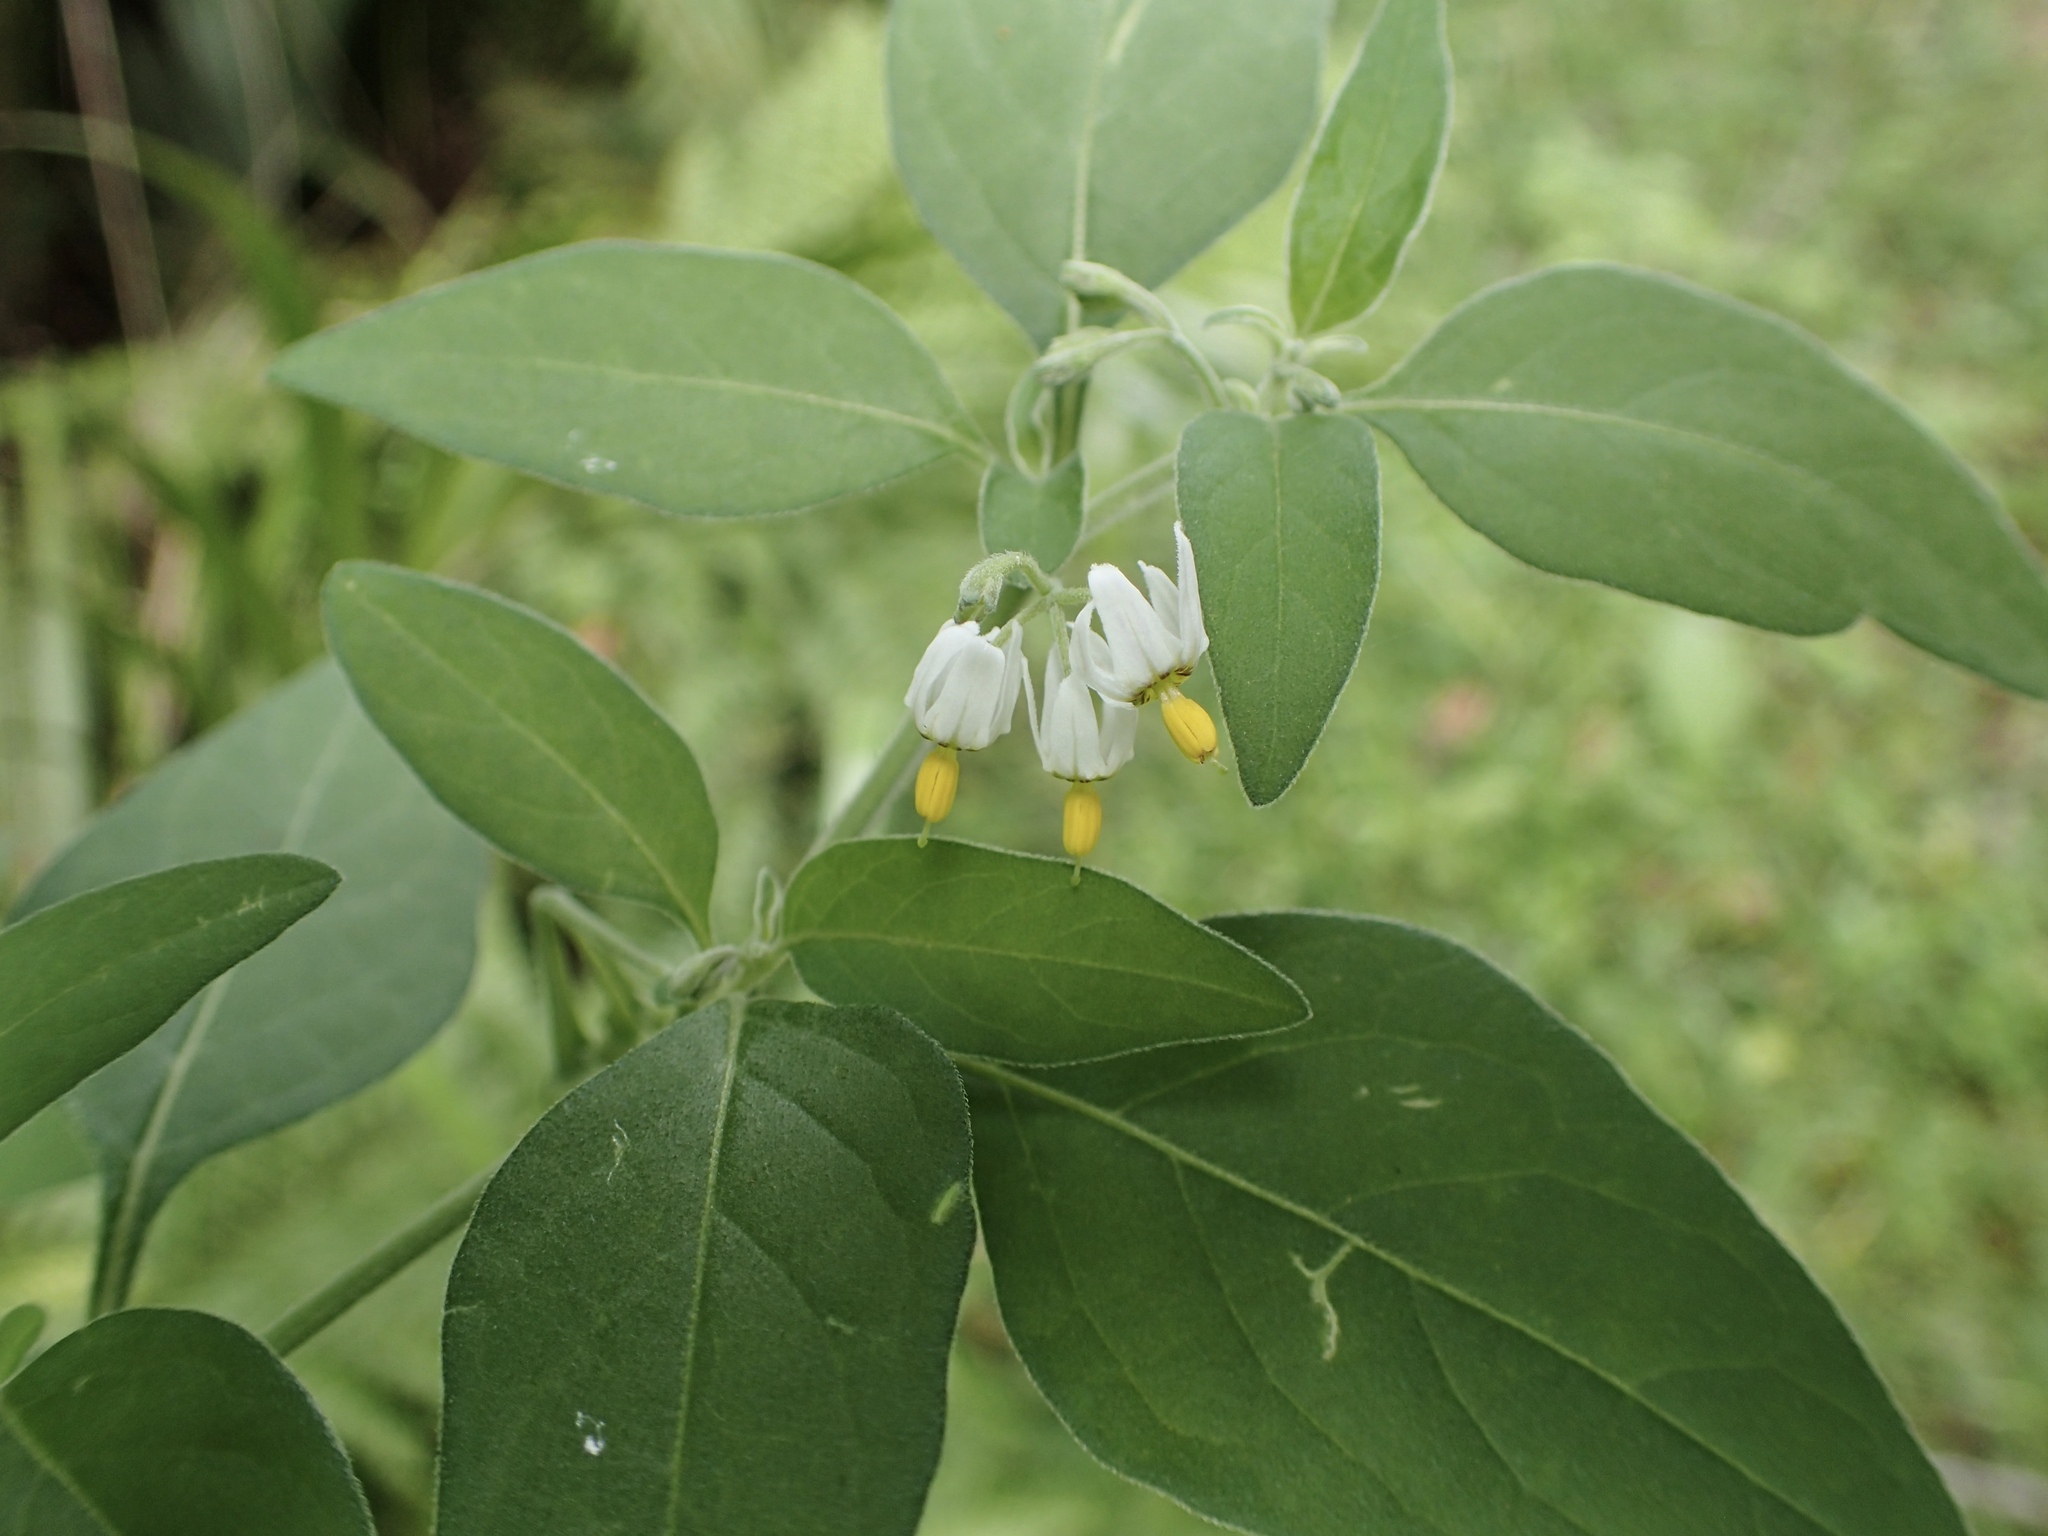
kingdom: Plantae
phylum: Tracheophyta
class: Magnoliopsida
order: Solanales
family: Solanaceae
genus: Solanum
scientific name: Solanum chenopodioides
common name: Tall nightshade
